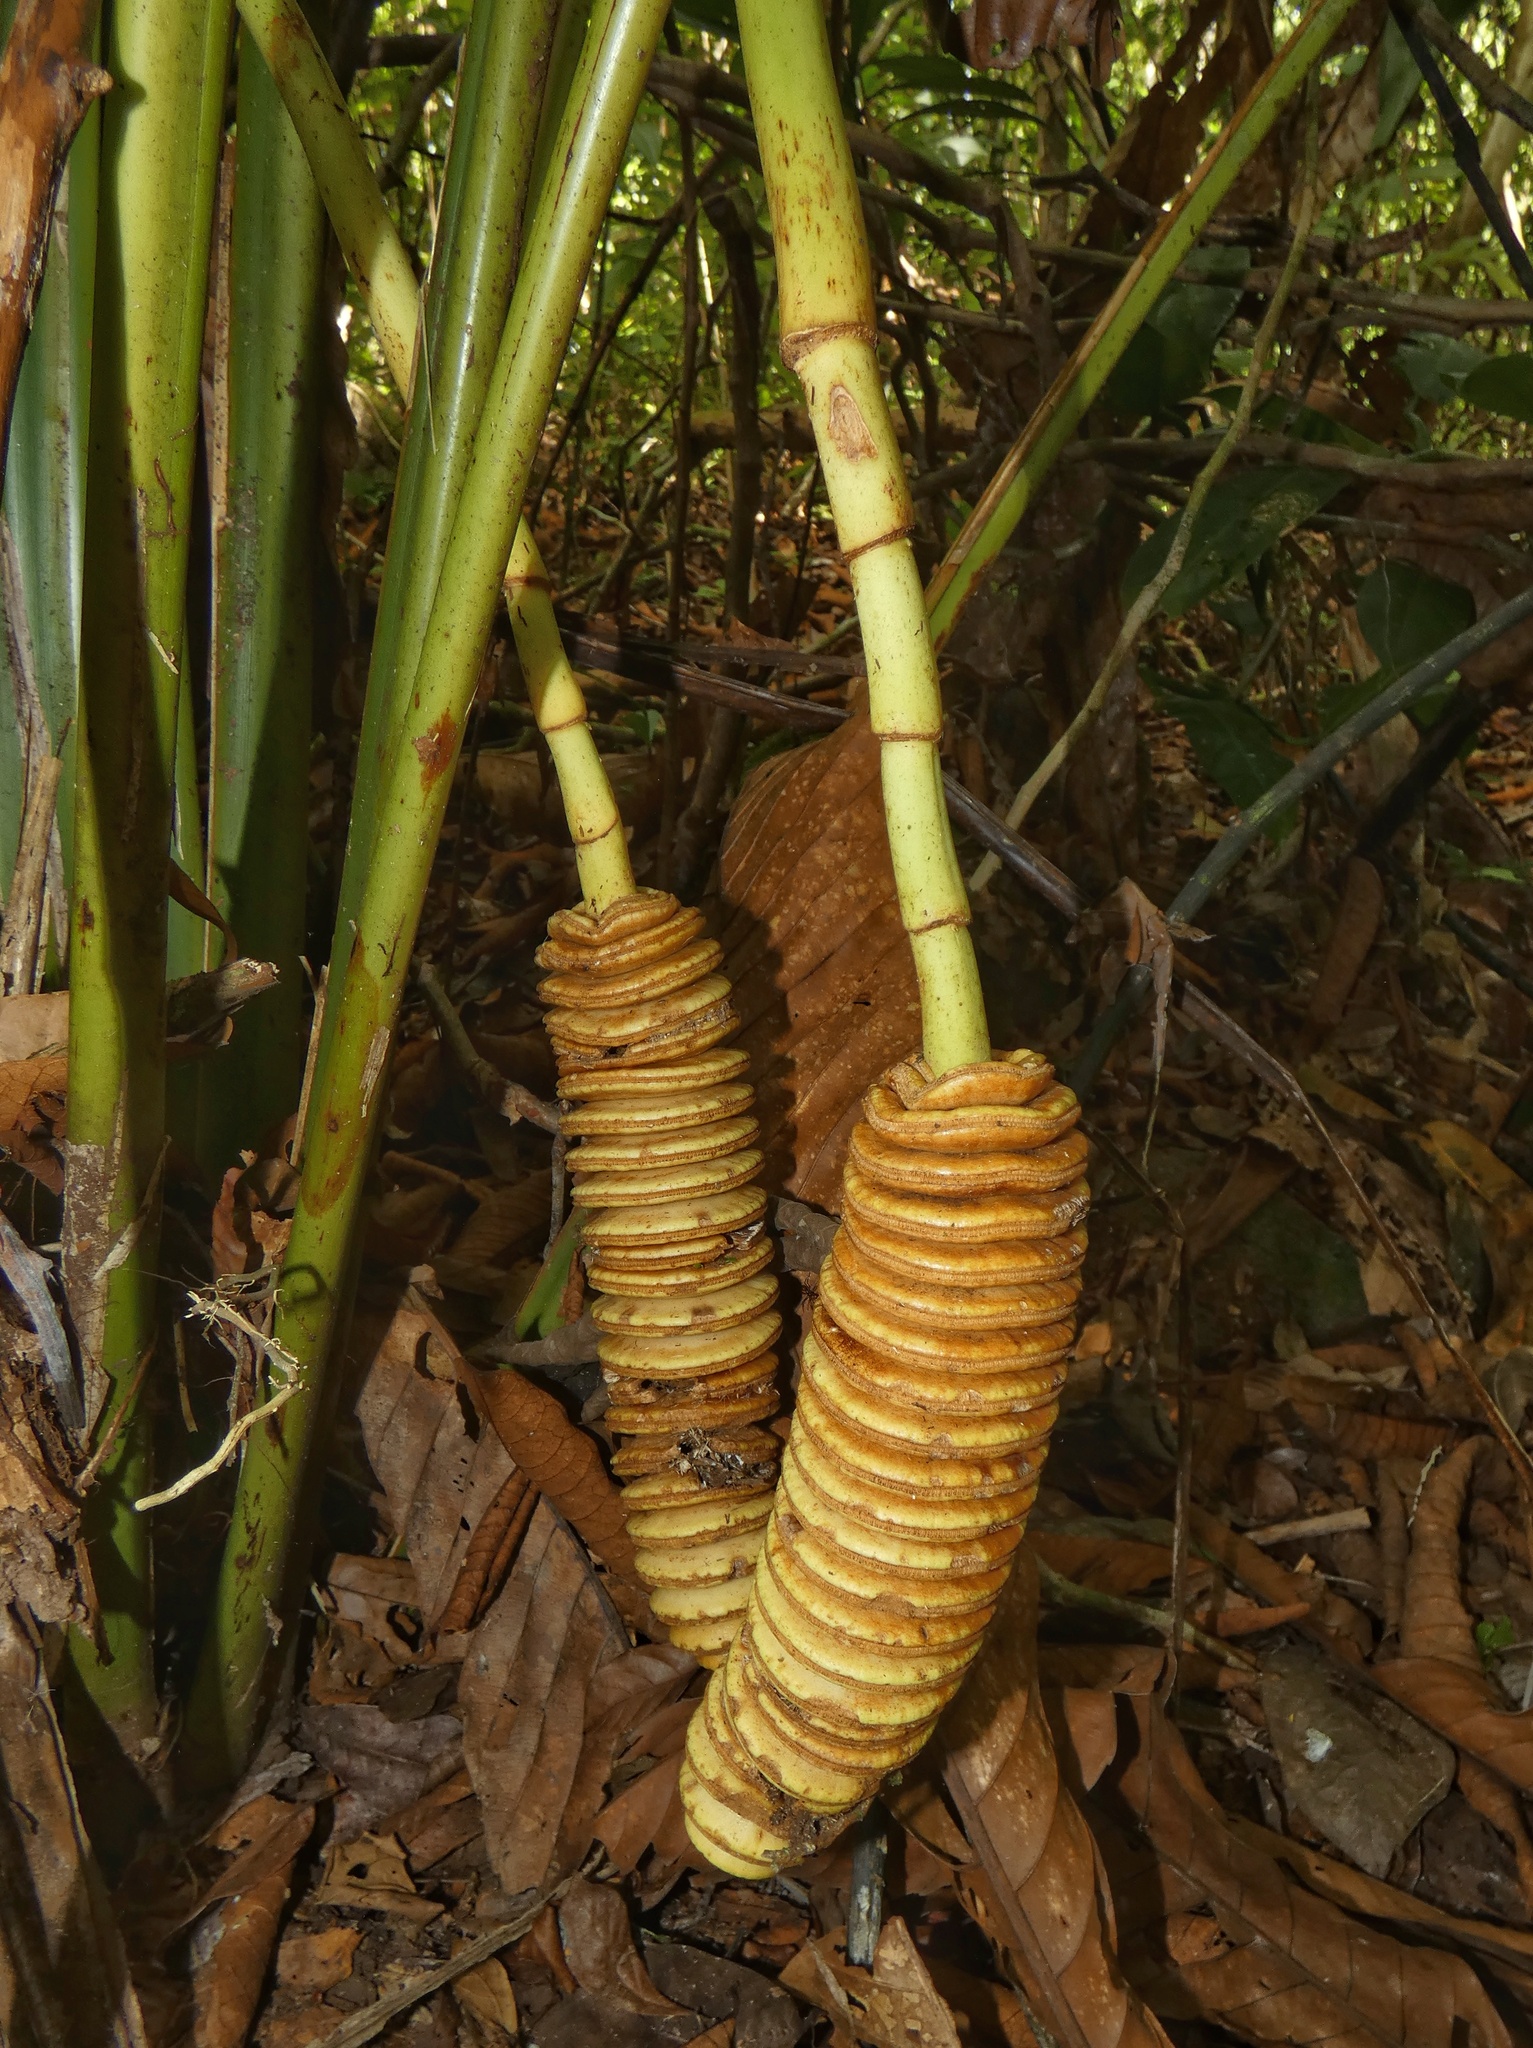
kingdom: Plantae
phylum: Tracheophyta
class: Liliopsida
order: Pandanales
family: Cyclanthaceae
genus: Cyclanthus
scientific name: Cyclanthus bipartitus
